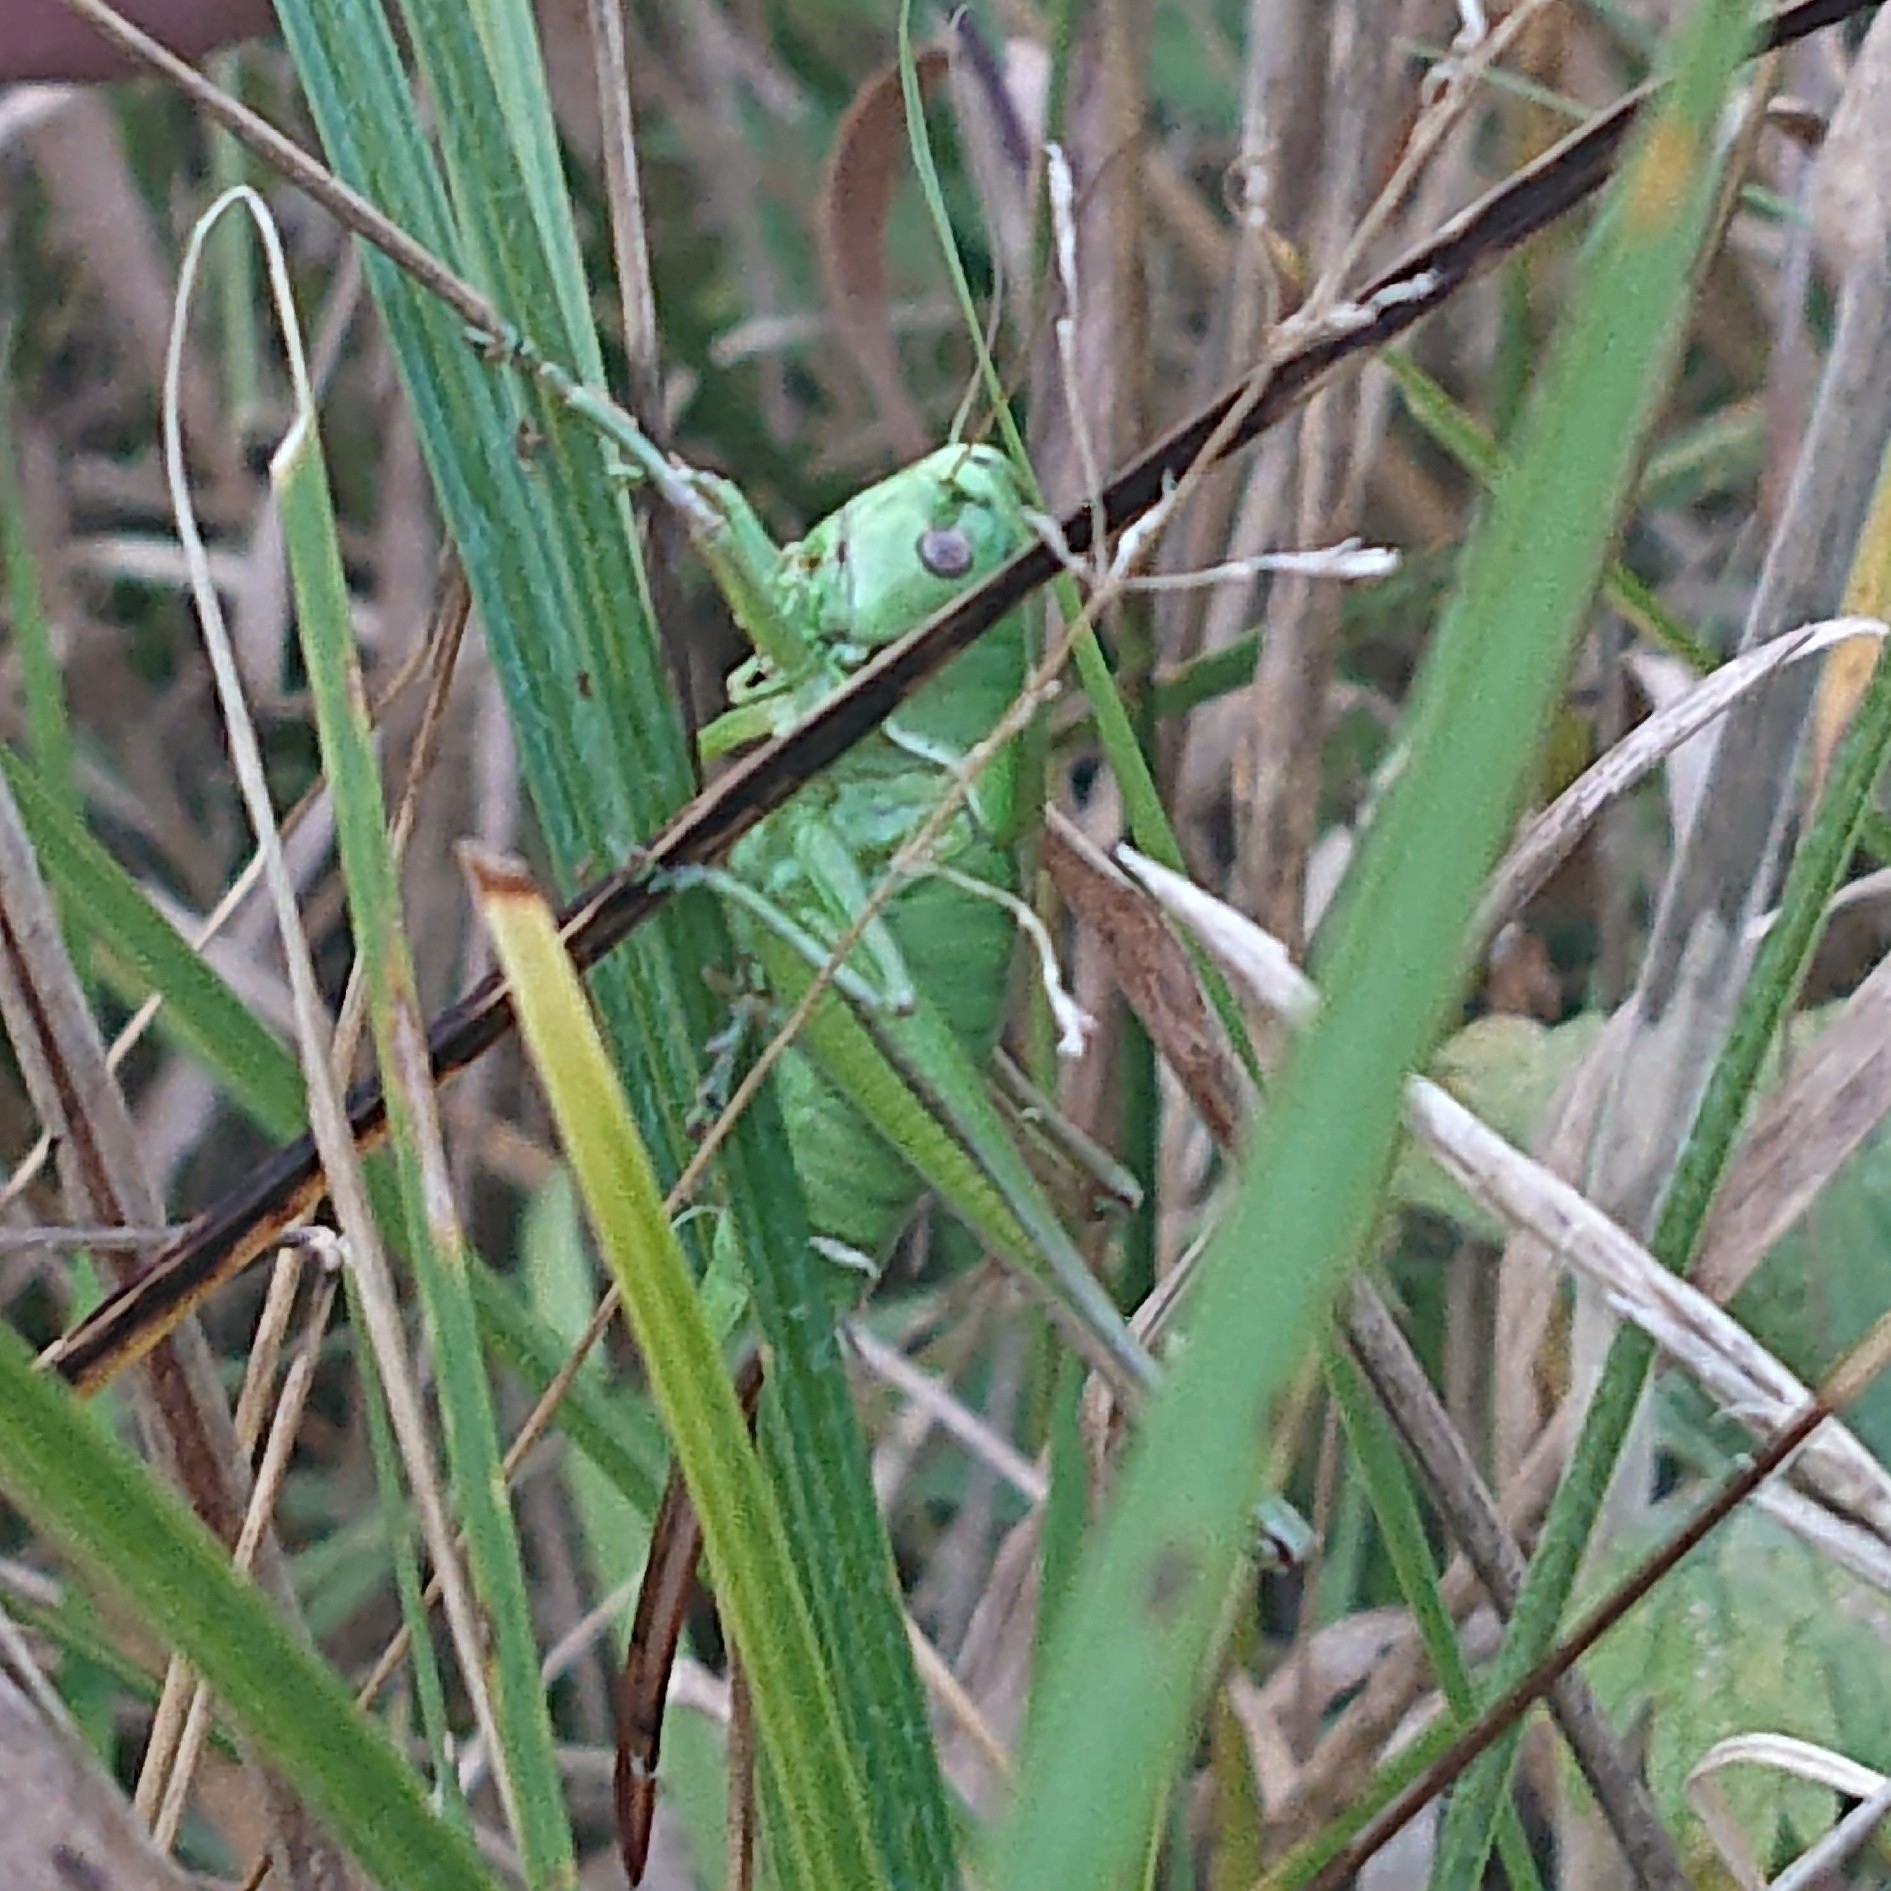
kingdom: Animalia
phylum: Arthropoda
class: Insecta
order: Orthoptera
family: Tettigoniidae
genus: Pholidoptera
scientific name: Pholidoptera frivaldszkyi
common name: Green dark bush-cricket
